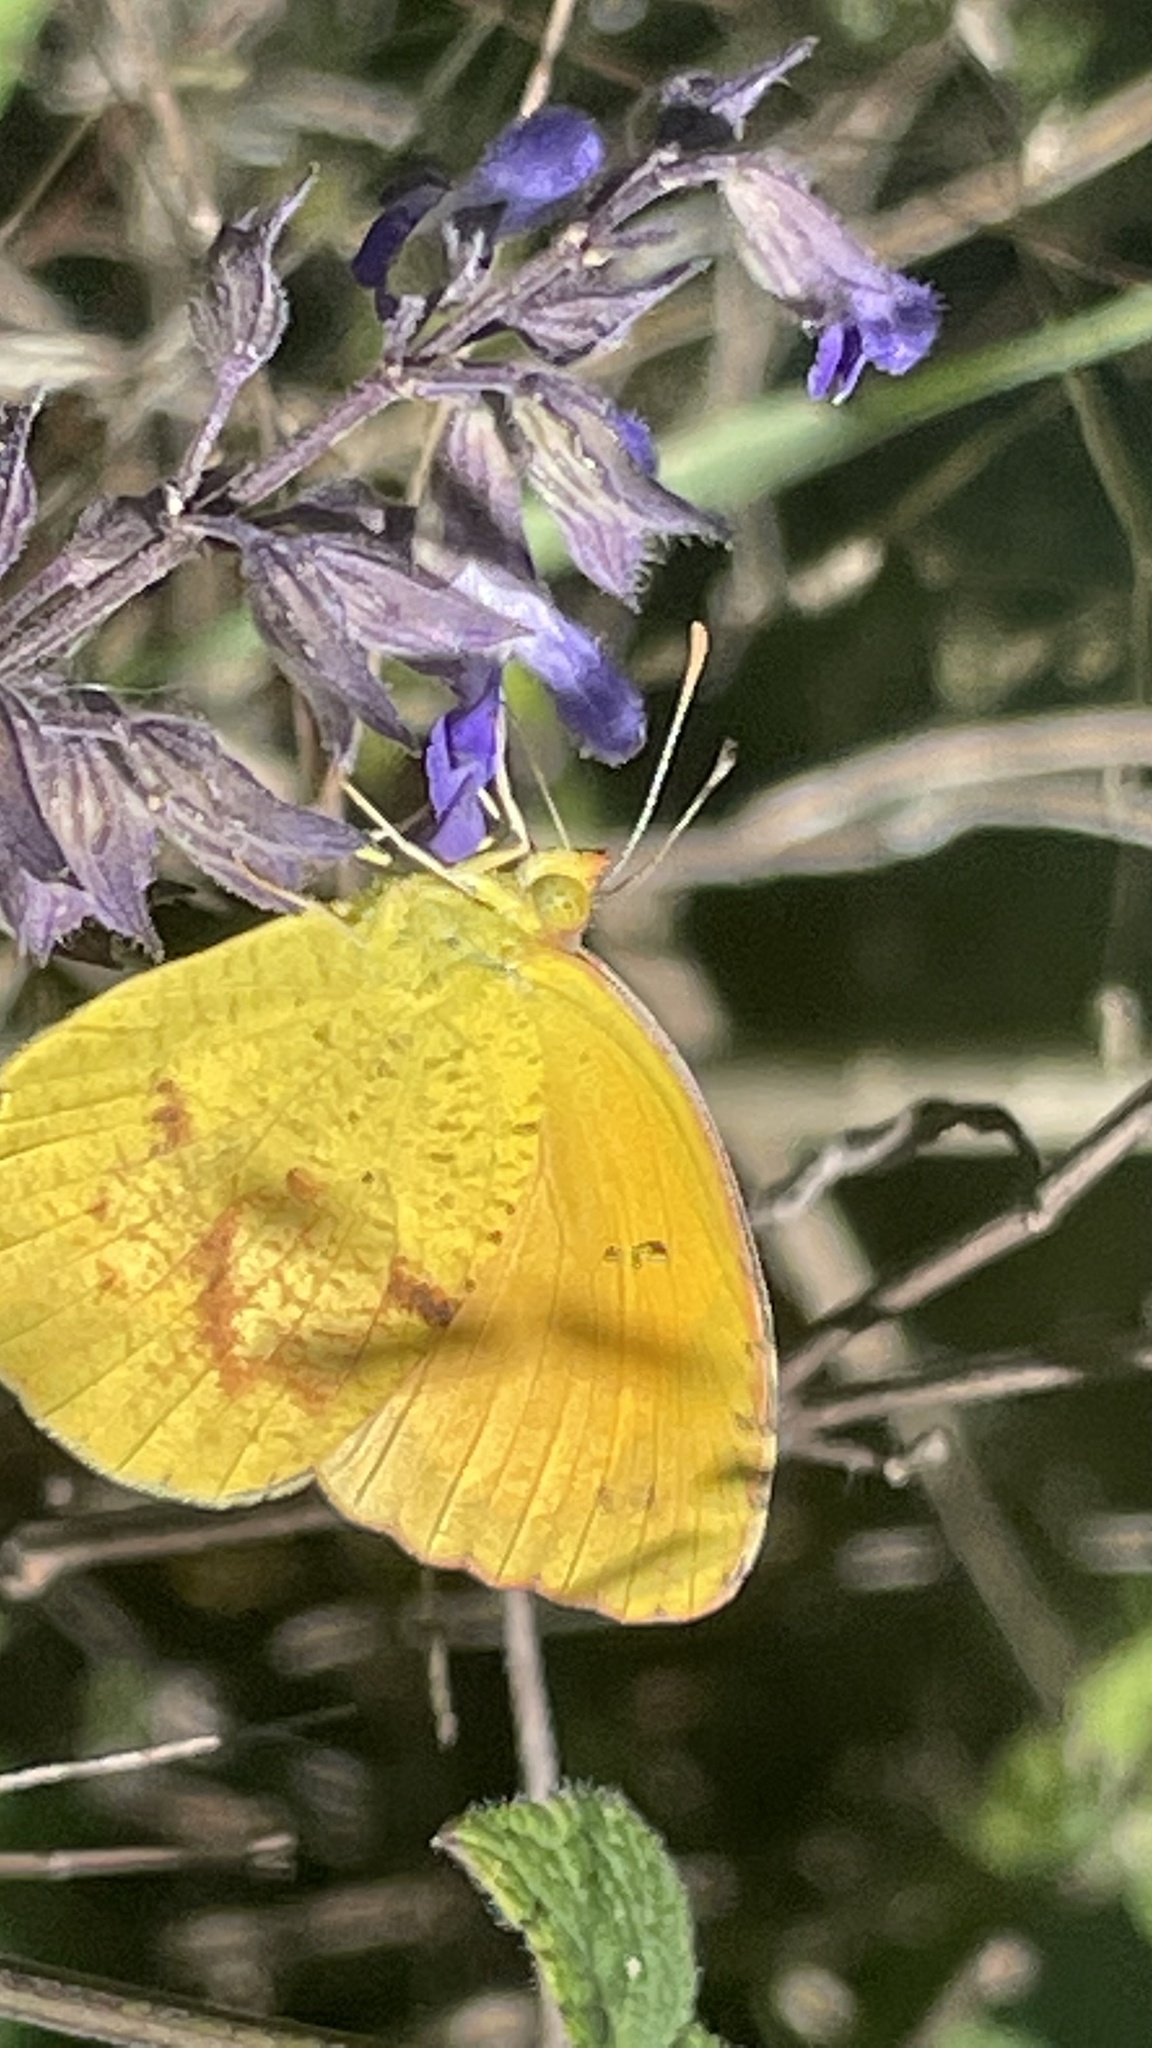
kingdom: Animalia
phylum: Arthropoda
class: Insecta
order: Lepidoptera
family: Pieridae
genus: Abaeis
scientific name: Abaeis nicippe
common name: Sleepy orange
